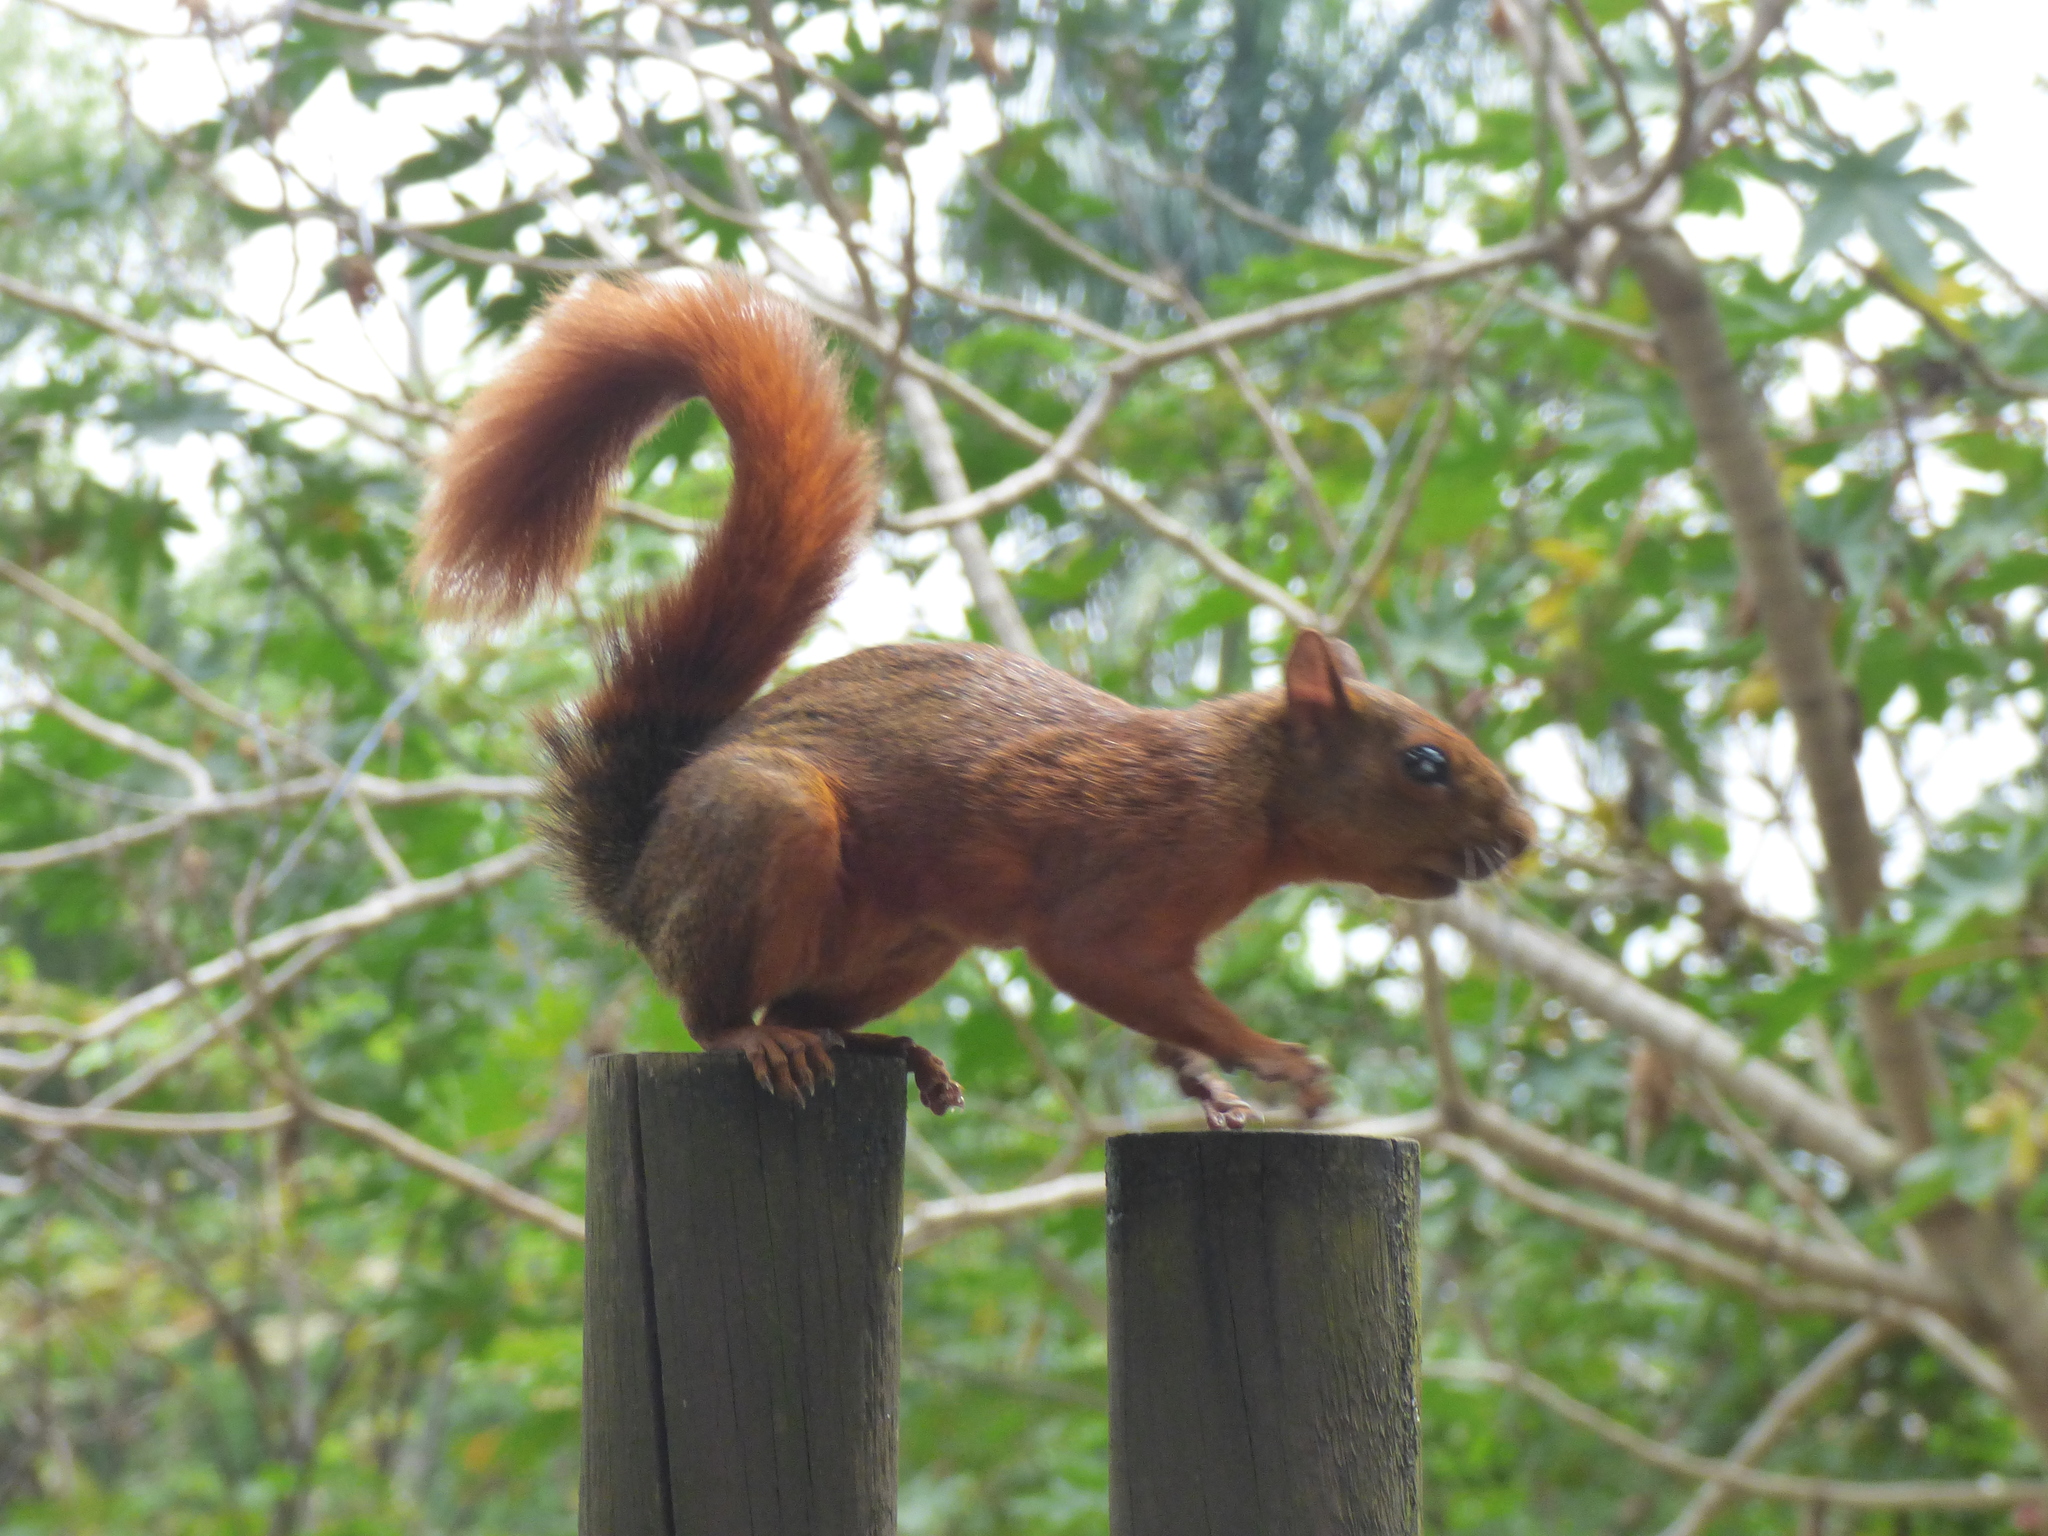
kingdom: Animalia
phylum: Chordata
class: Mammalia
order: Rodentia
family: Sciuridae
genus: Sciurus
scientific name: Sciurus granatensis
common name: Red-tailed squirrel
